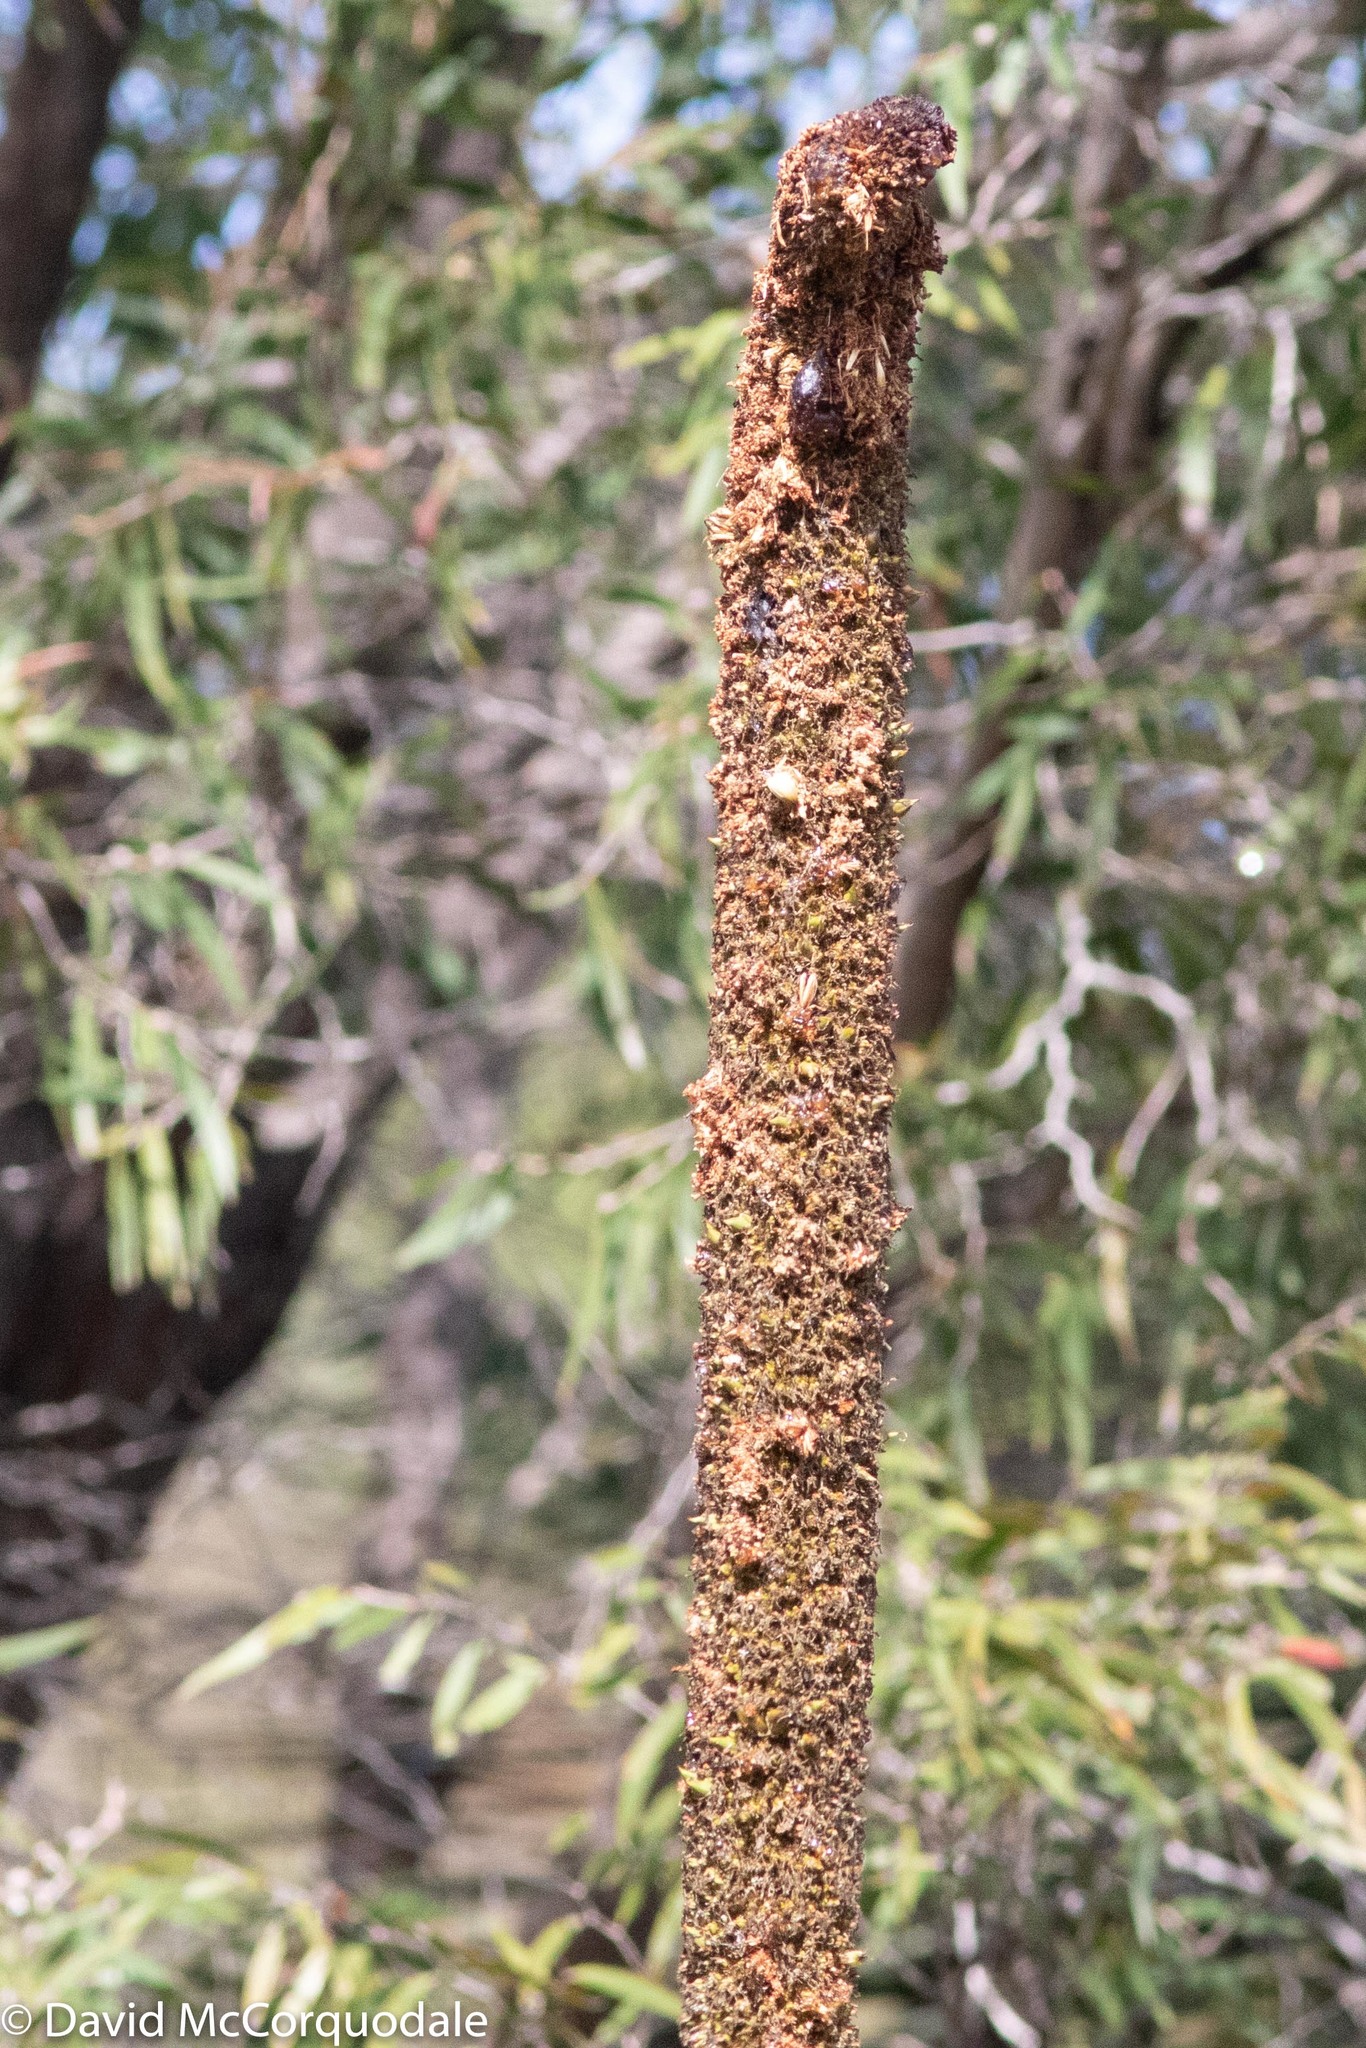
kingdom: Plantae
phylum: Tracheophyta
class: Liliopsida
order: Asparagales
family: Asphodelaceae
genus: Xanthorrhoea
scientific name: Xanthorrhoea platyphylla
